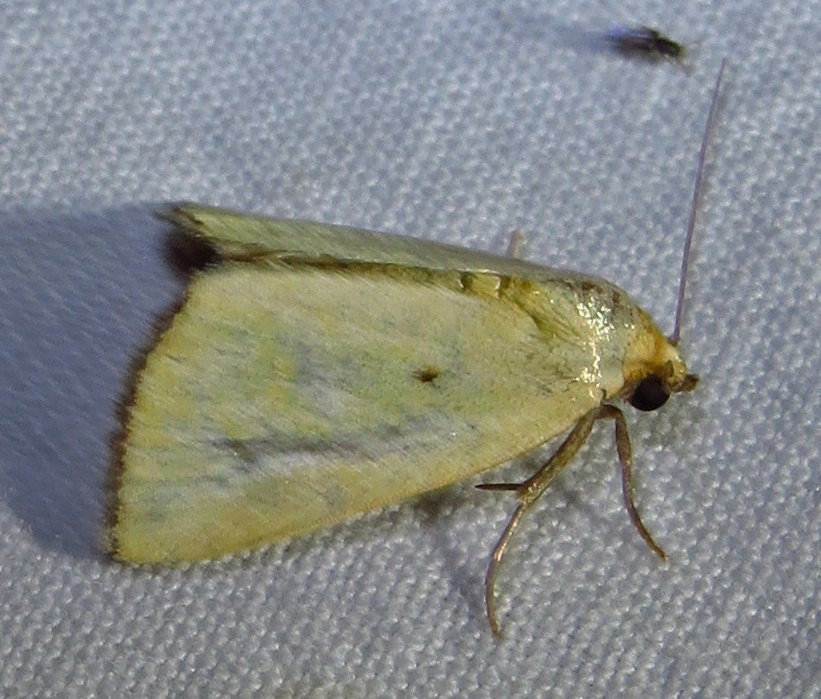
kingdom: Animalia
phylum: Arthropoda
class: Insecta
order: Lepidoptera
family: Noctuidae
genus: Marimatha
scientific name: Marimatha nigrofimbria
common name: Black-bordered lemon moth
